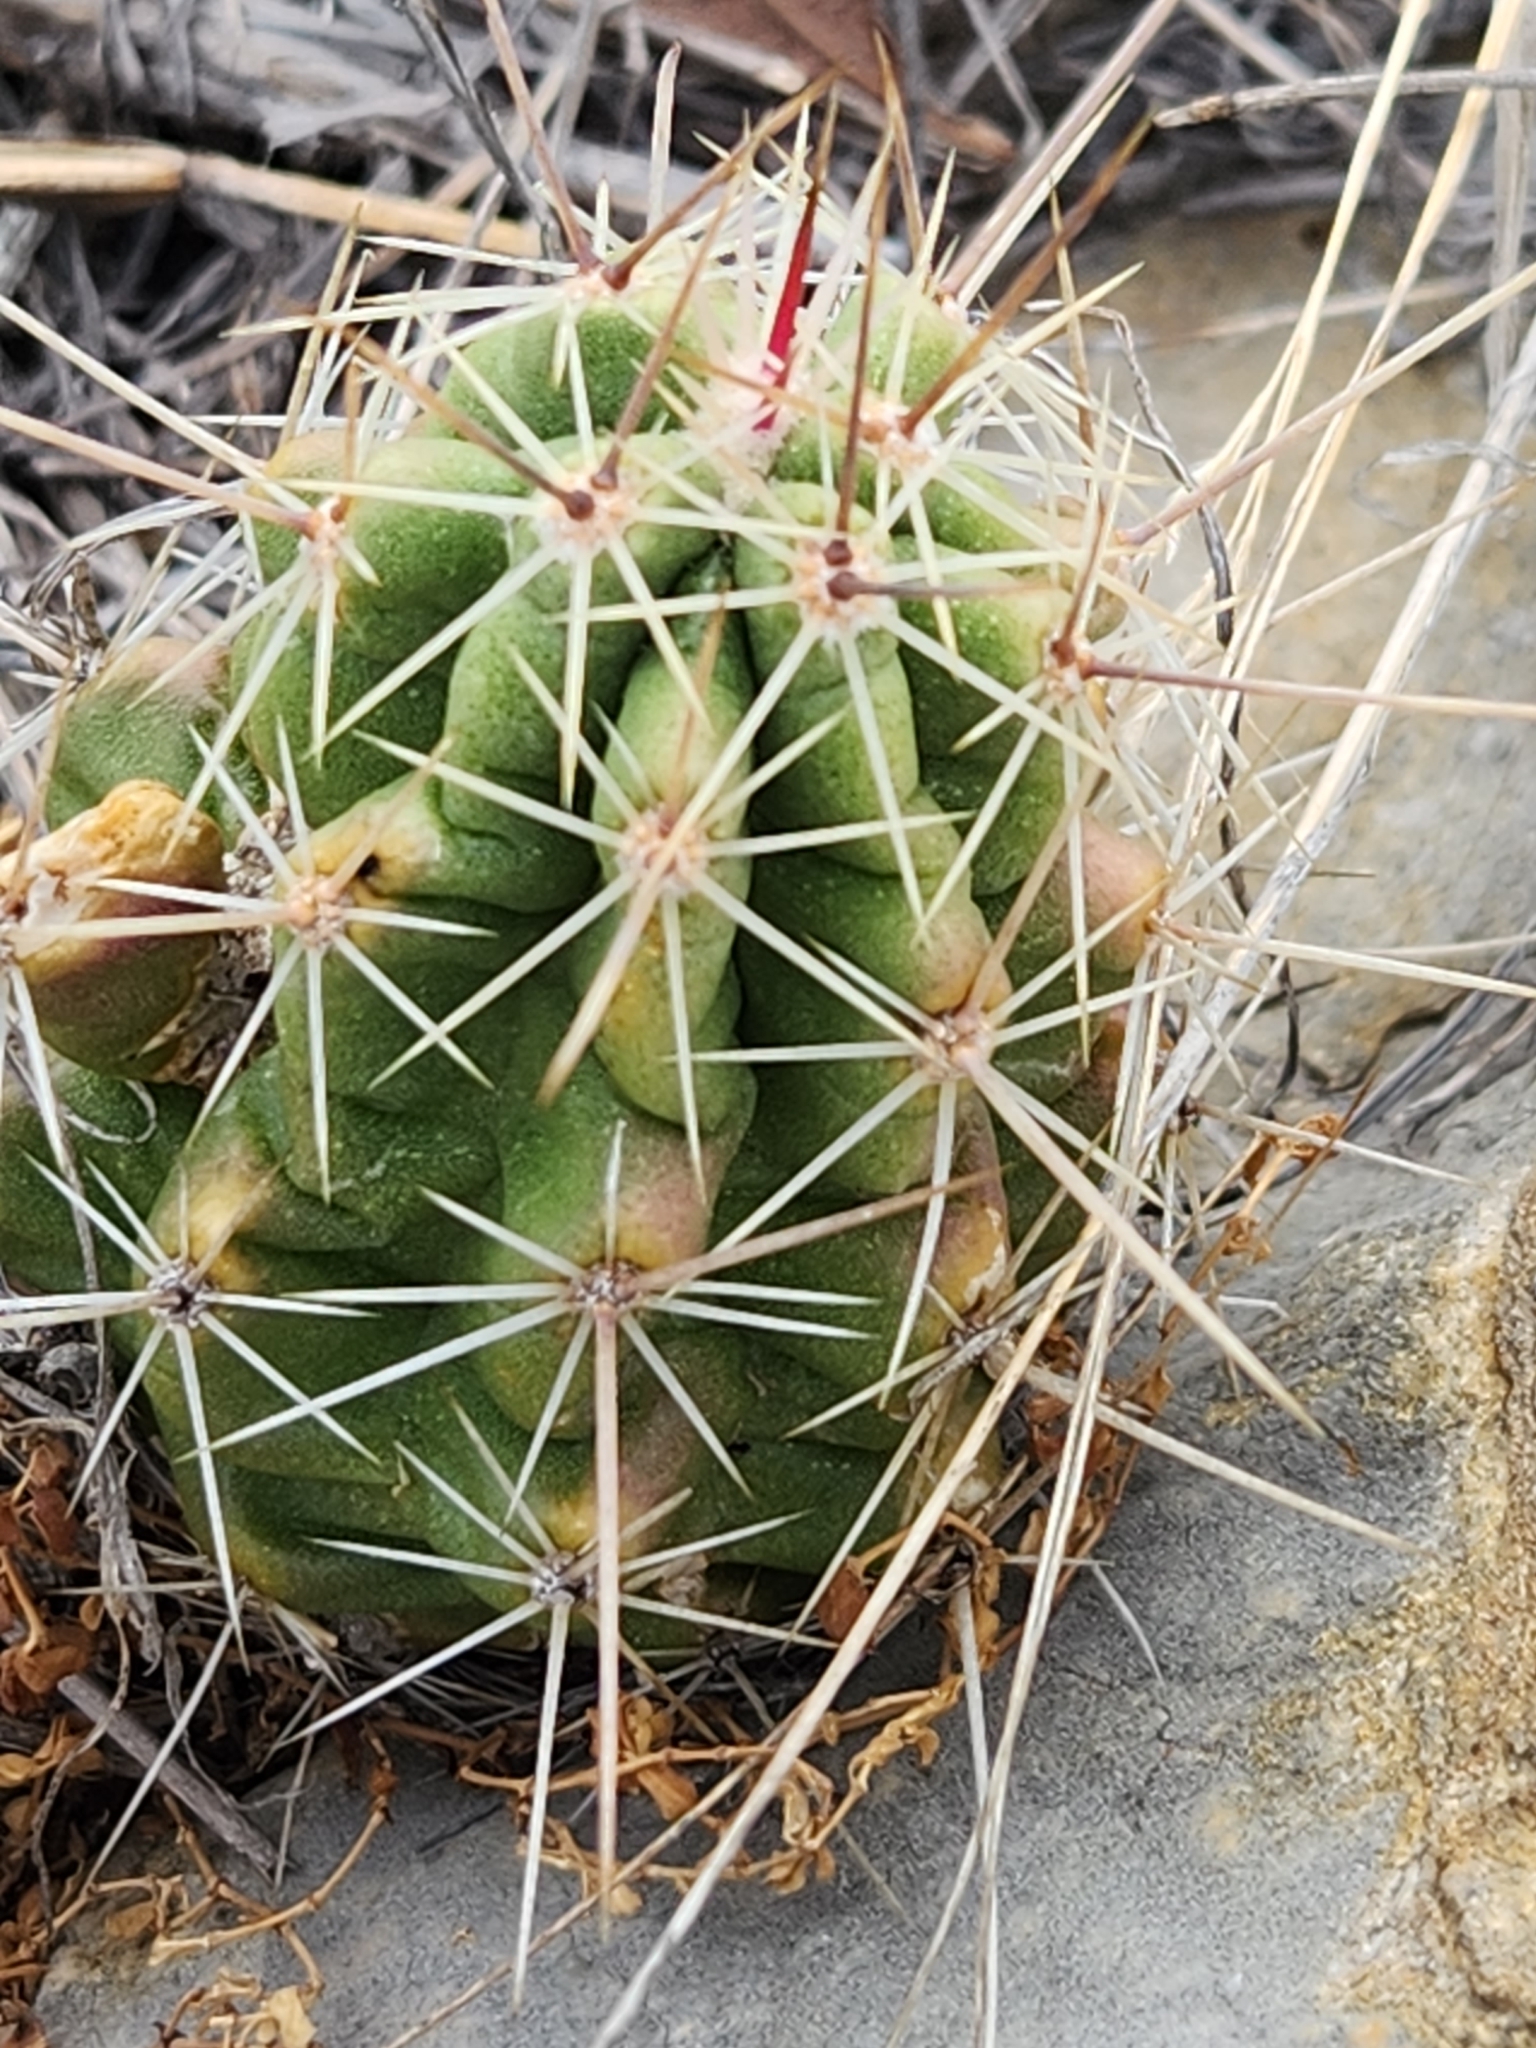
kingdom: Plantae
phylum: Tracheophyta
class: Magnoliopsida
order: Caryophyllales
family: Cactaceae
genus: Echinocereus
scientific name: Echinocereus enneacanthus
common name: Pitaya
